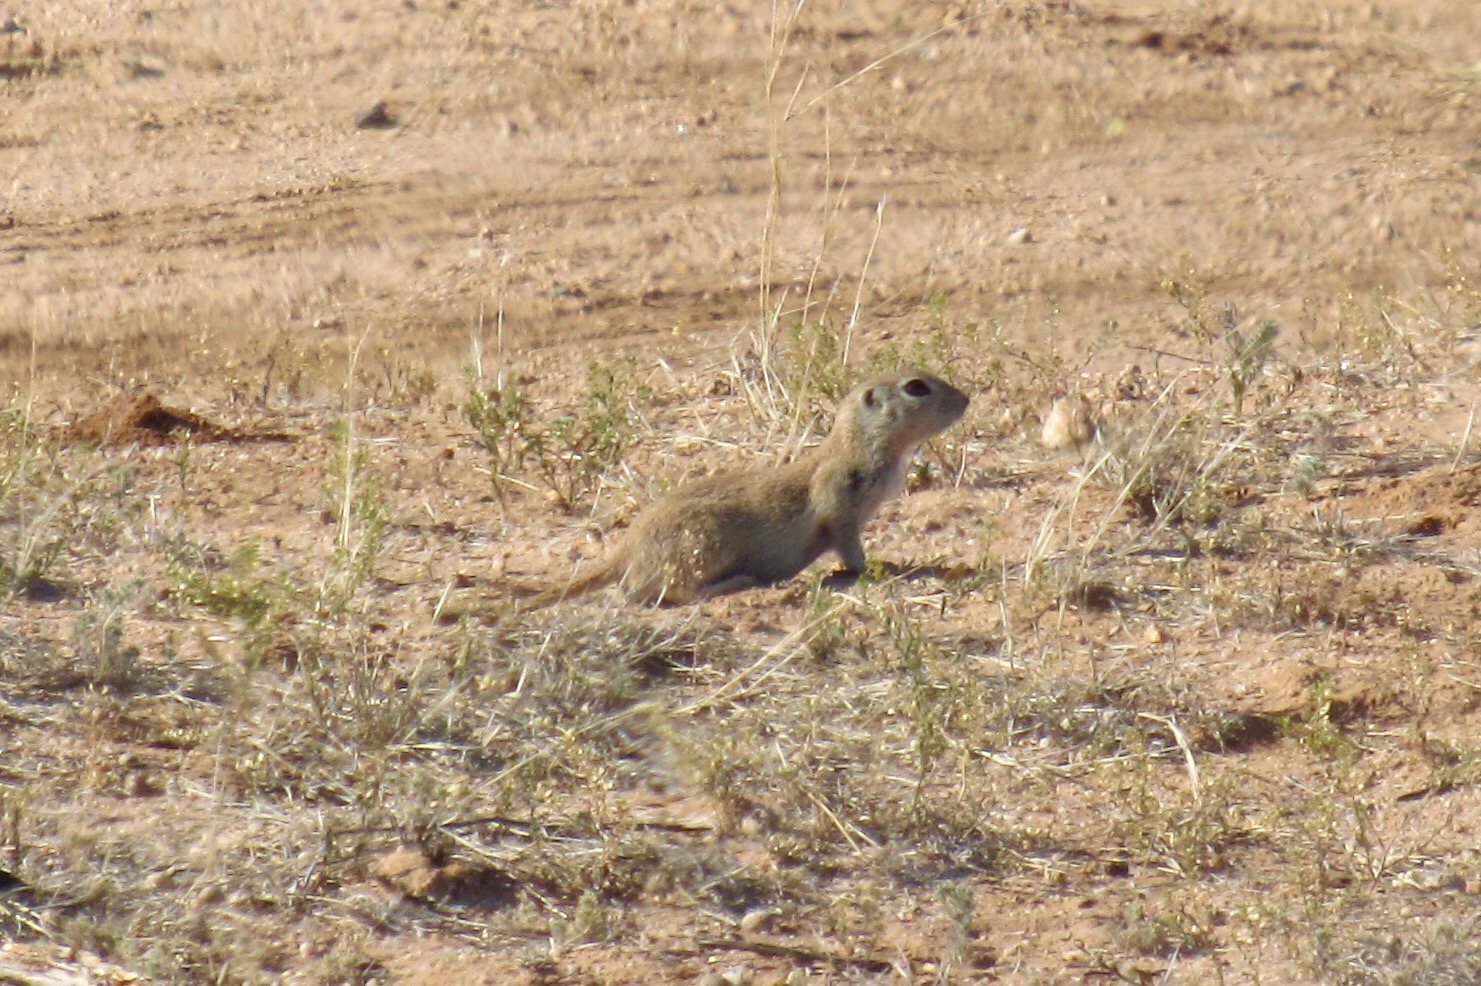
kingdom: Animalia
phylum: Chordata
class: Mammalia
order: Rodentia
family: Sciuridae
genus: Xerospermophilus
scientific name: Xerospermophilus tereticaudus
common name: Round-tailed ground squirrel
